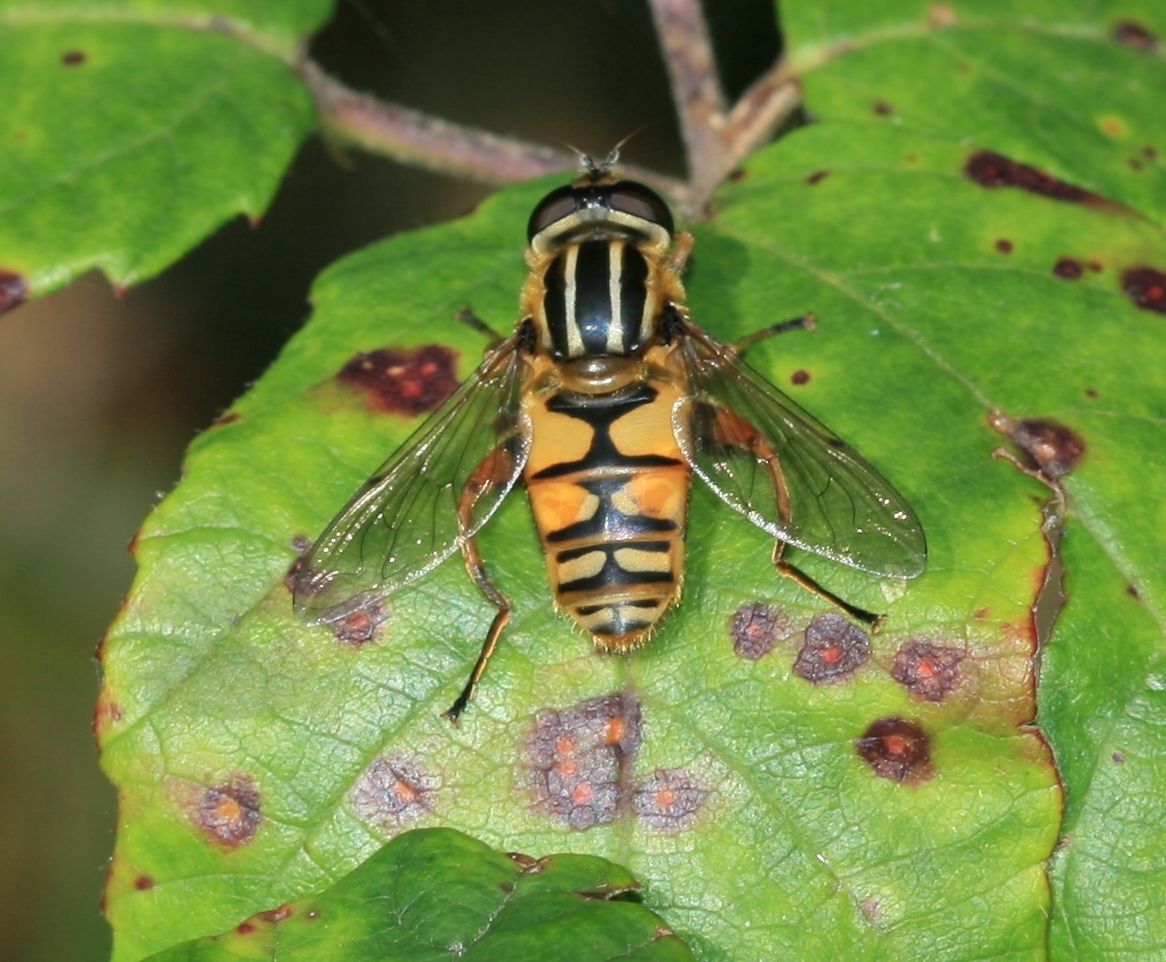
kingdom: Animalia
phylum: Arthropoda
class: Insecta
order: Diptera
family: Syrphidae
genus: Helophilus
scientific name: Helophilus pendulus
